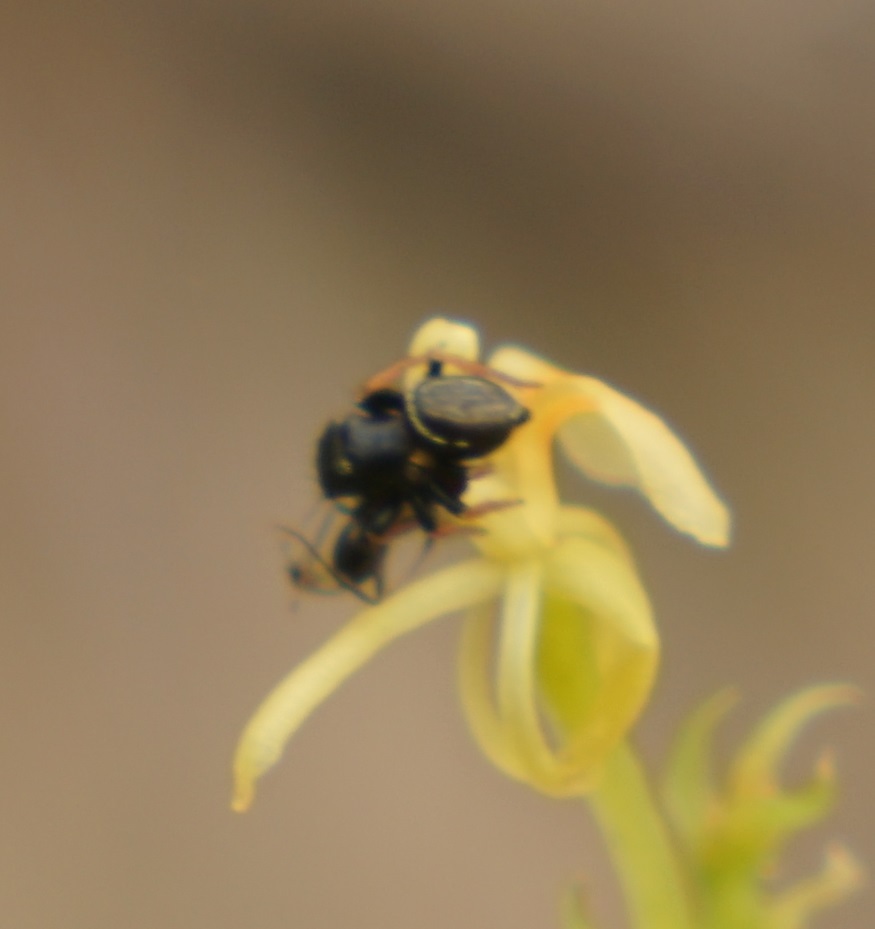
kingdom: Animalia
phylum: Arthropoda
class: Arachnida
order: Araneae
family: Salticidae
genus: Zenodorus
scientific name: Zenodorus orbiculatus
